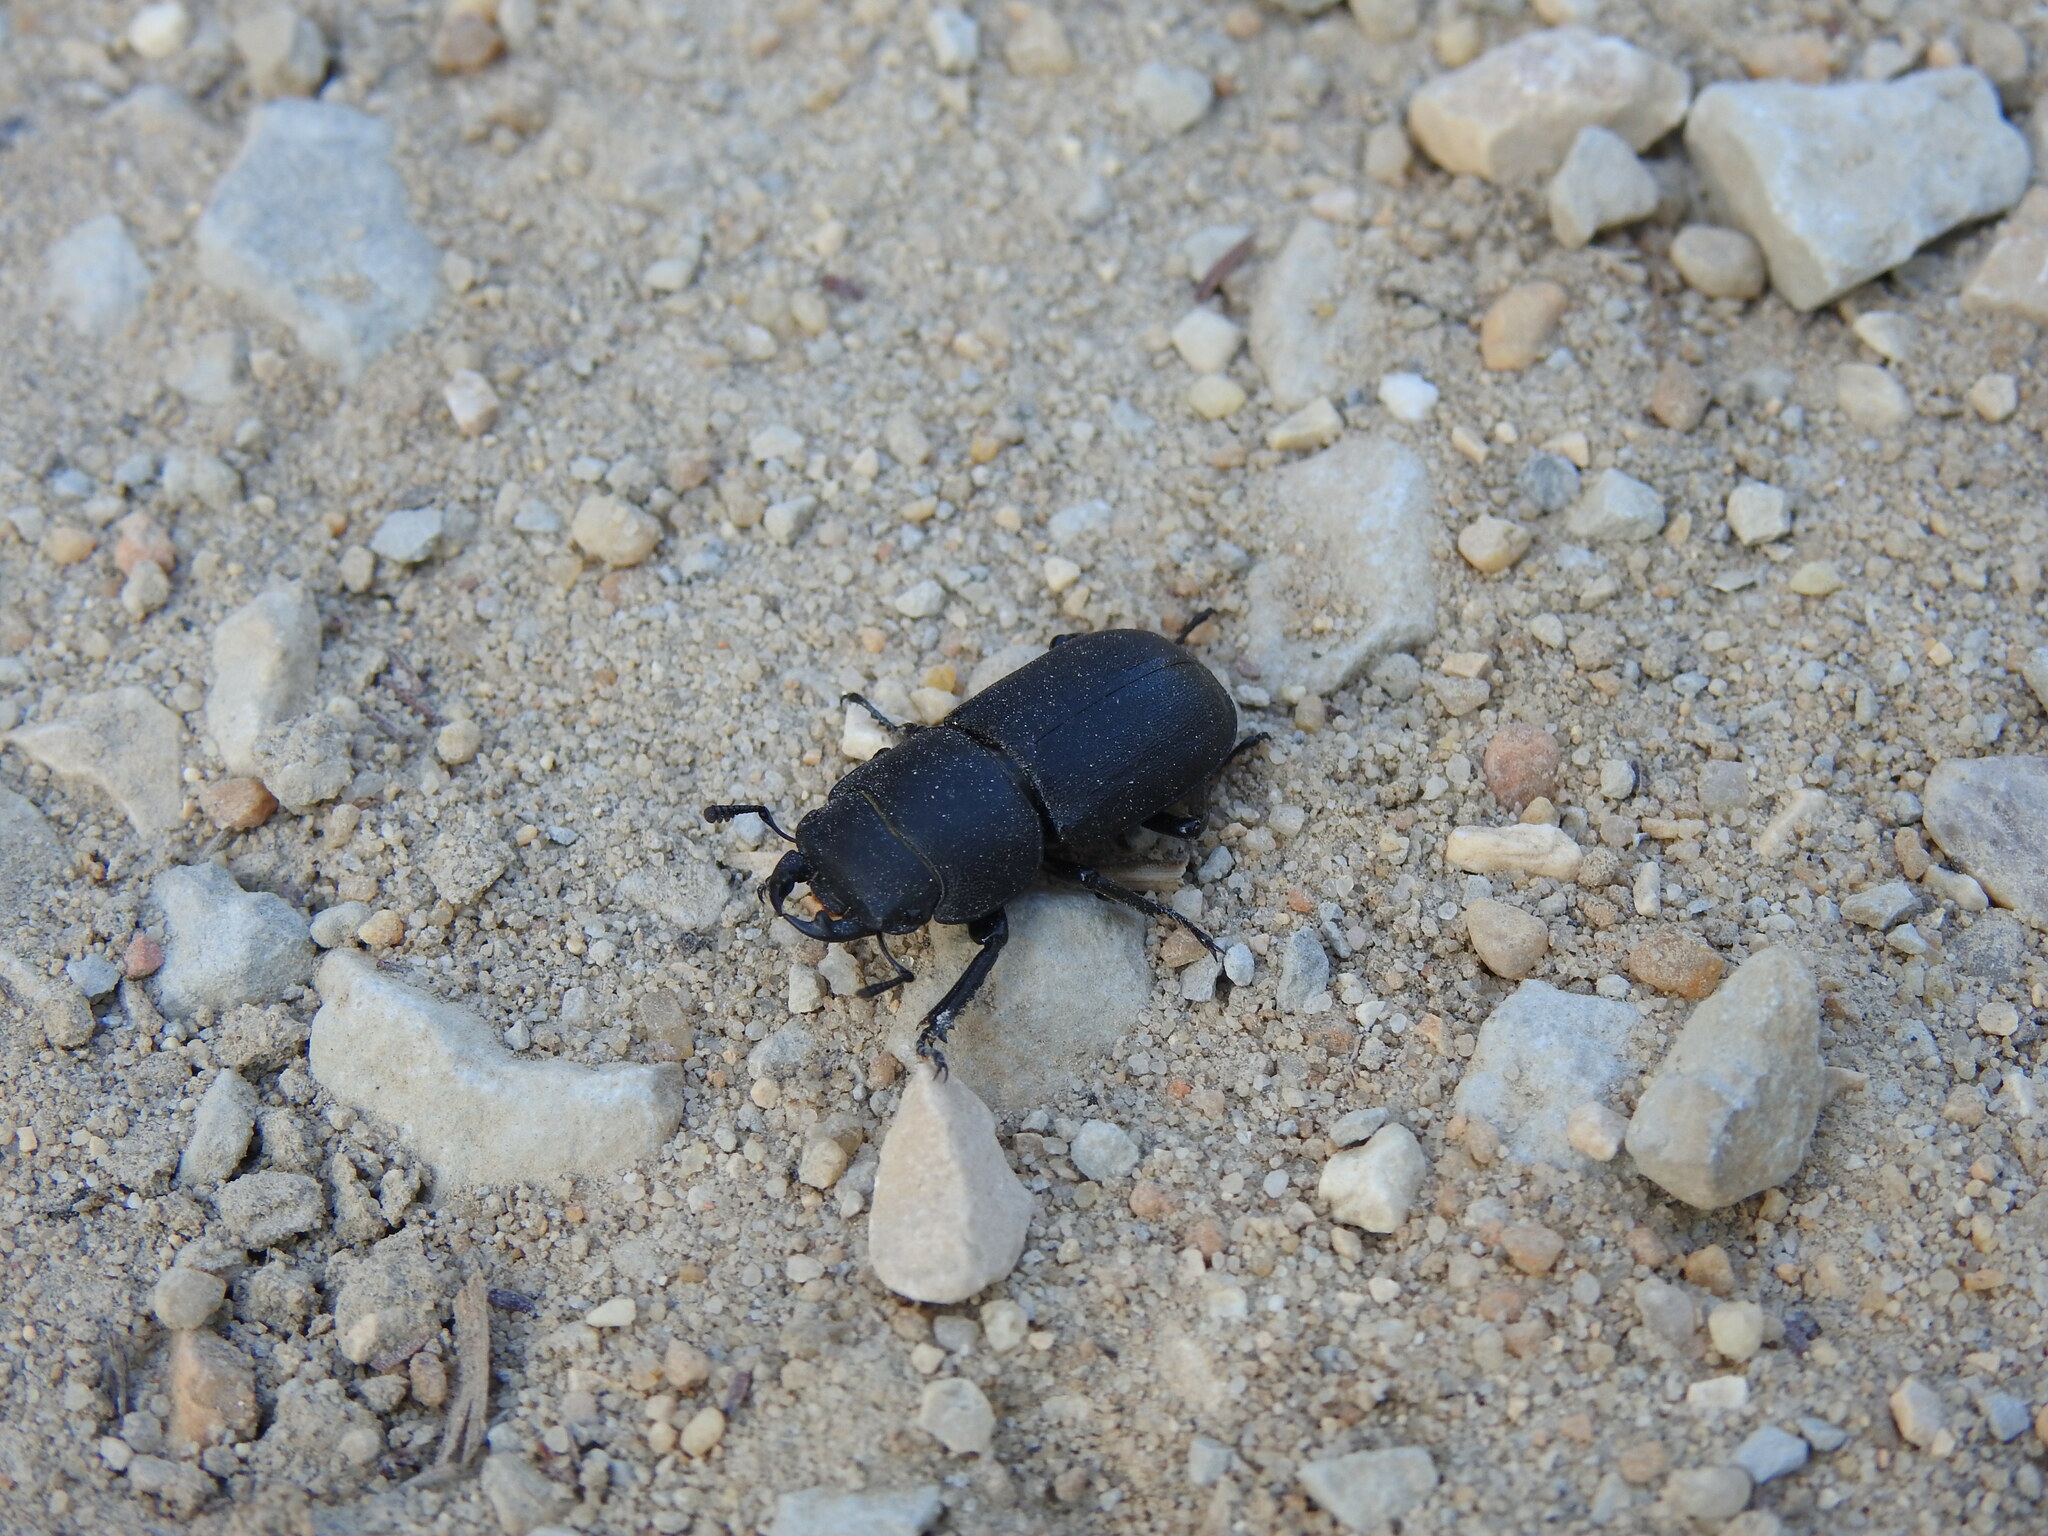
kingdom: Animalia
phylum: Arthropoda
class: Insecta
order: Coleoptera
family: Lucanidae
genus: Dorcus
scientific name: Dorcus parallelipipedus
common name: Lesser stag beetle
